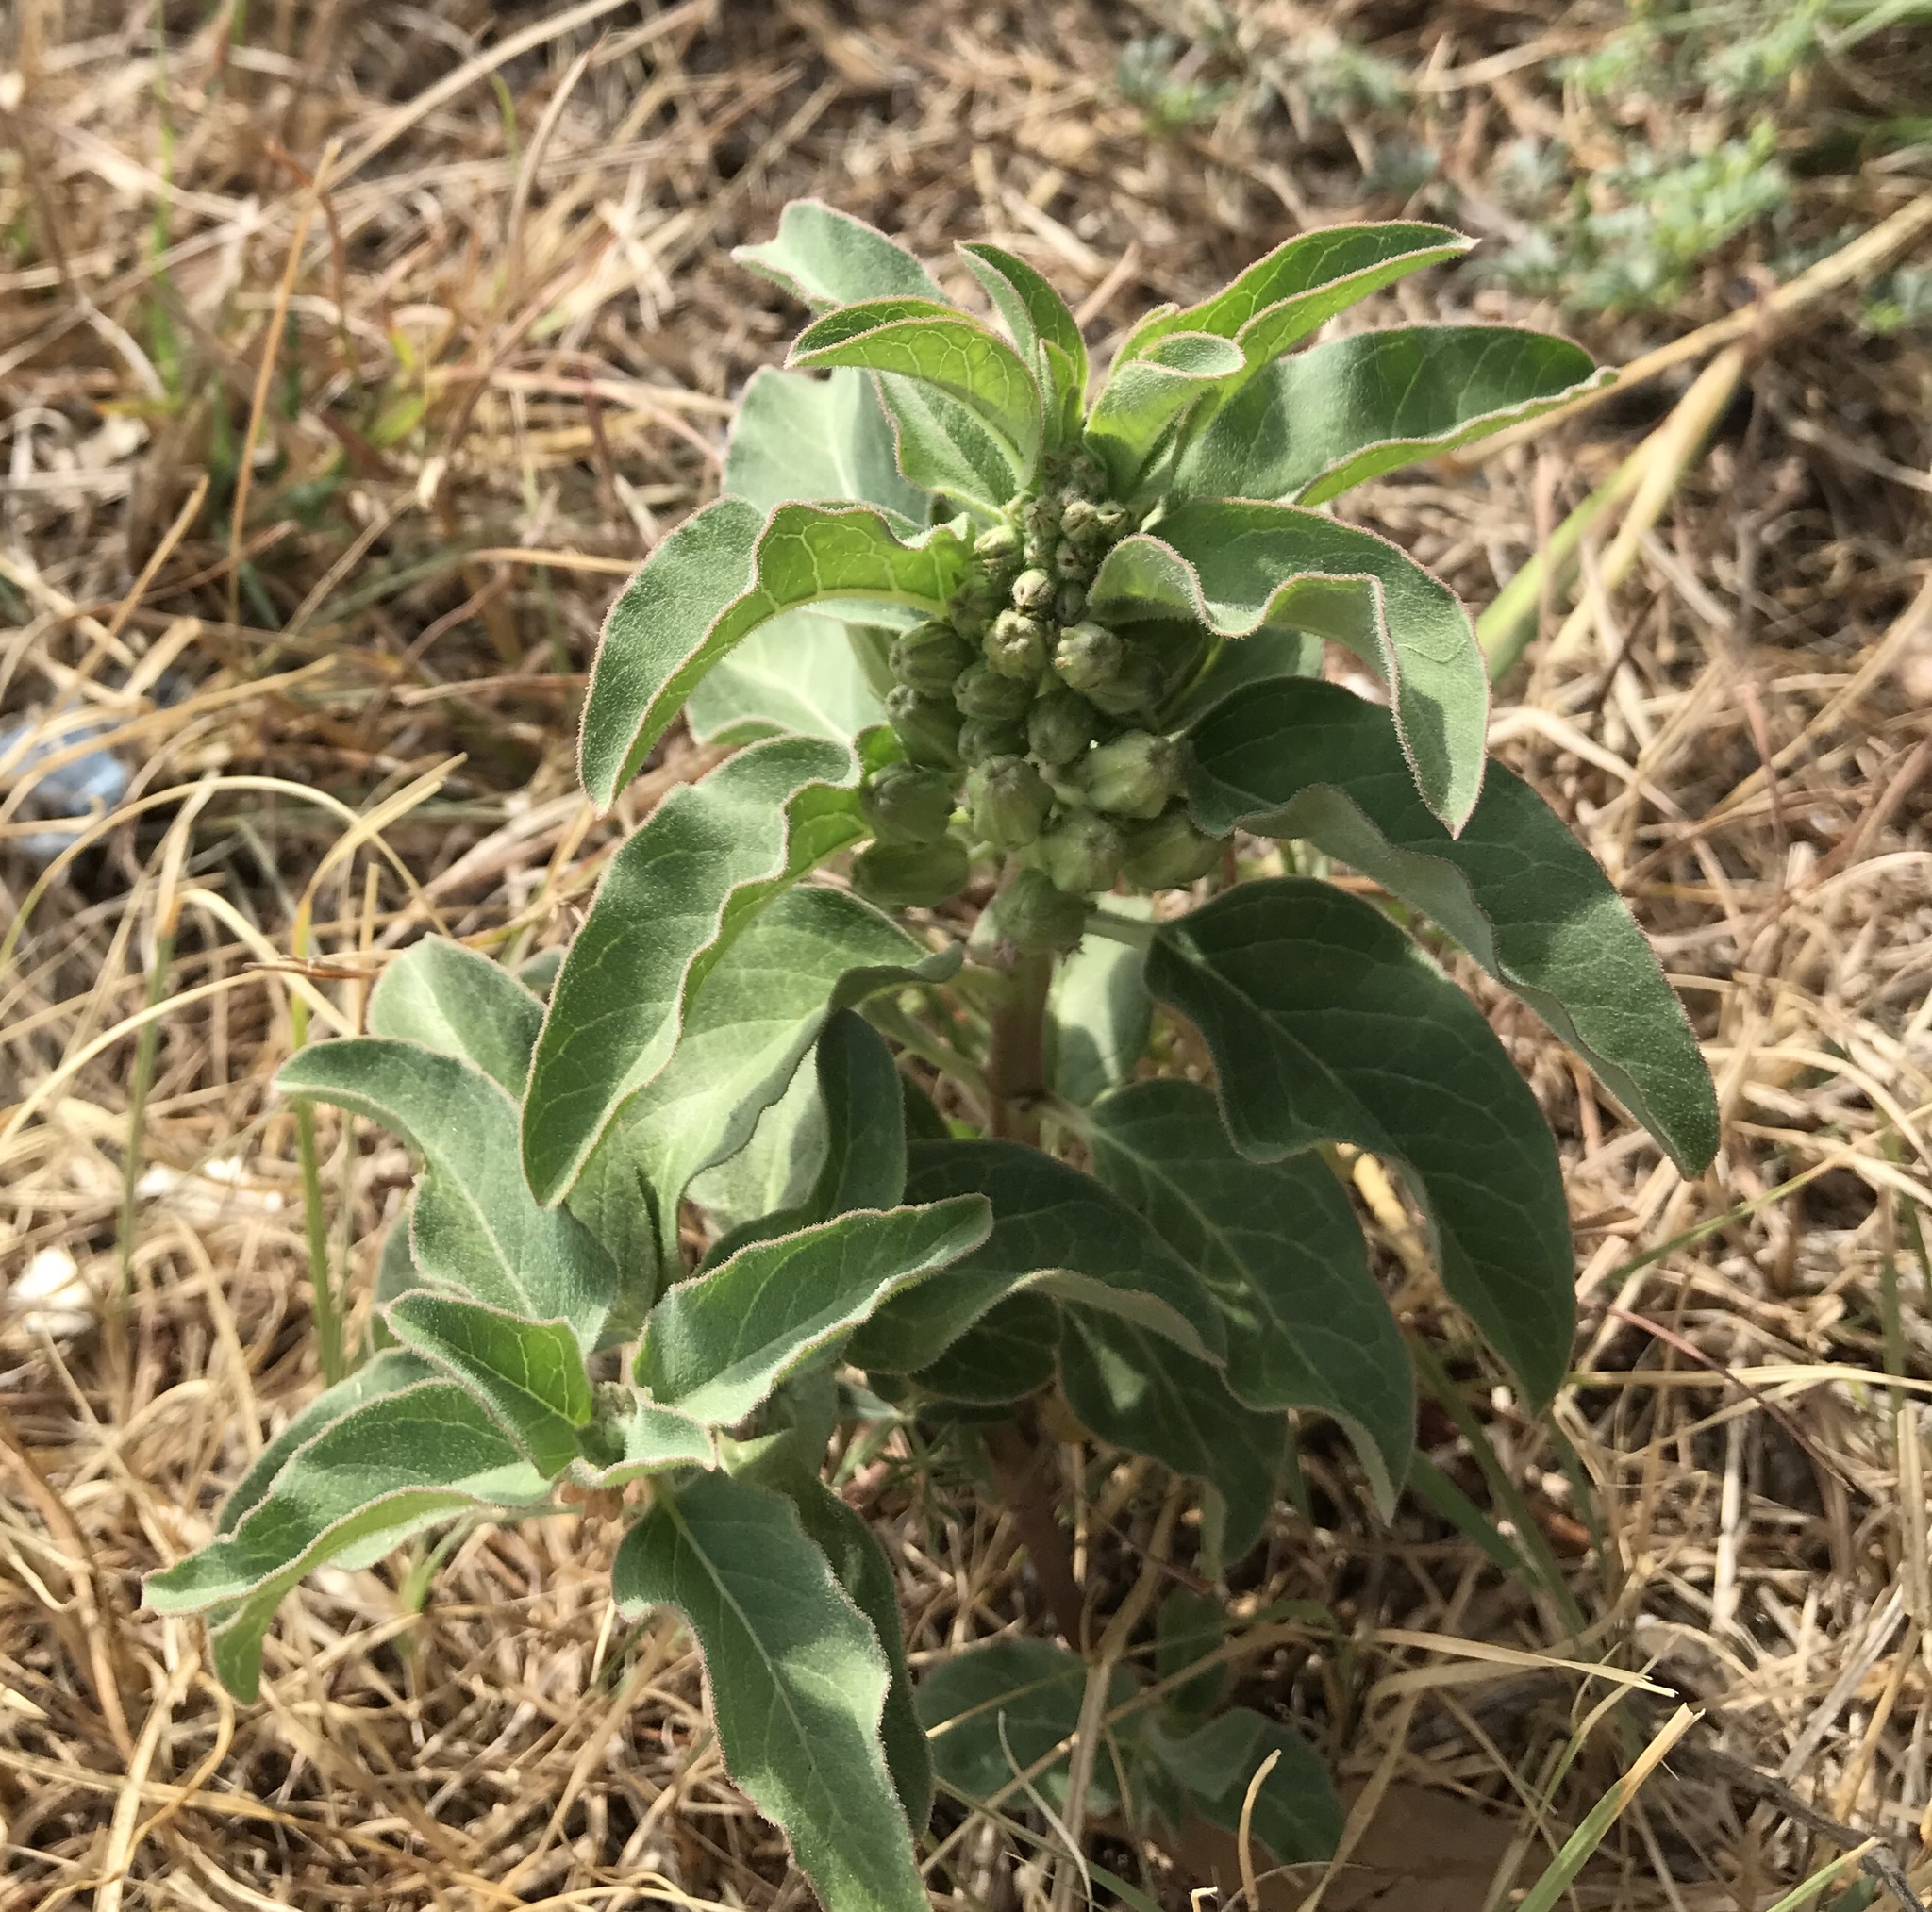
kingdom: Plantae
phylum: Tracheophyta
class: Magnoliopsida
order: Gentianales
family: Apocynaceae
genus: Asclepias
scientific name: Asclepias oenotheroides
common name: Zizotes milkweed
